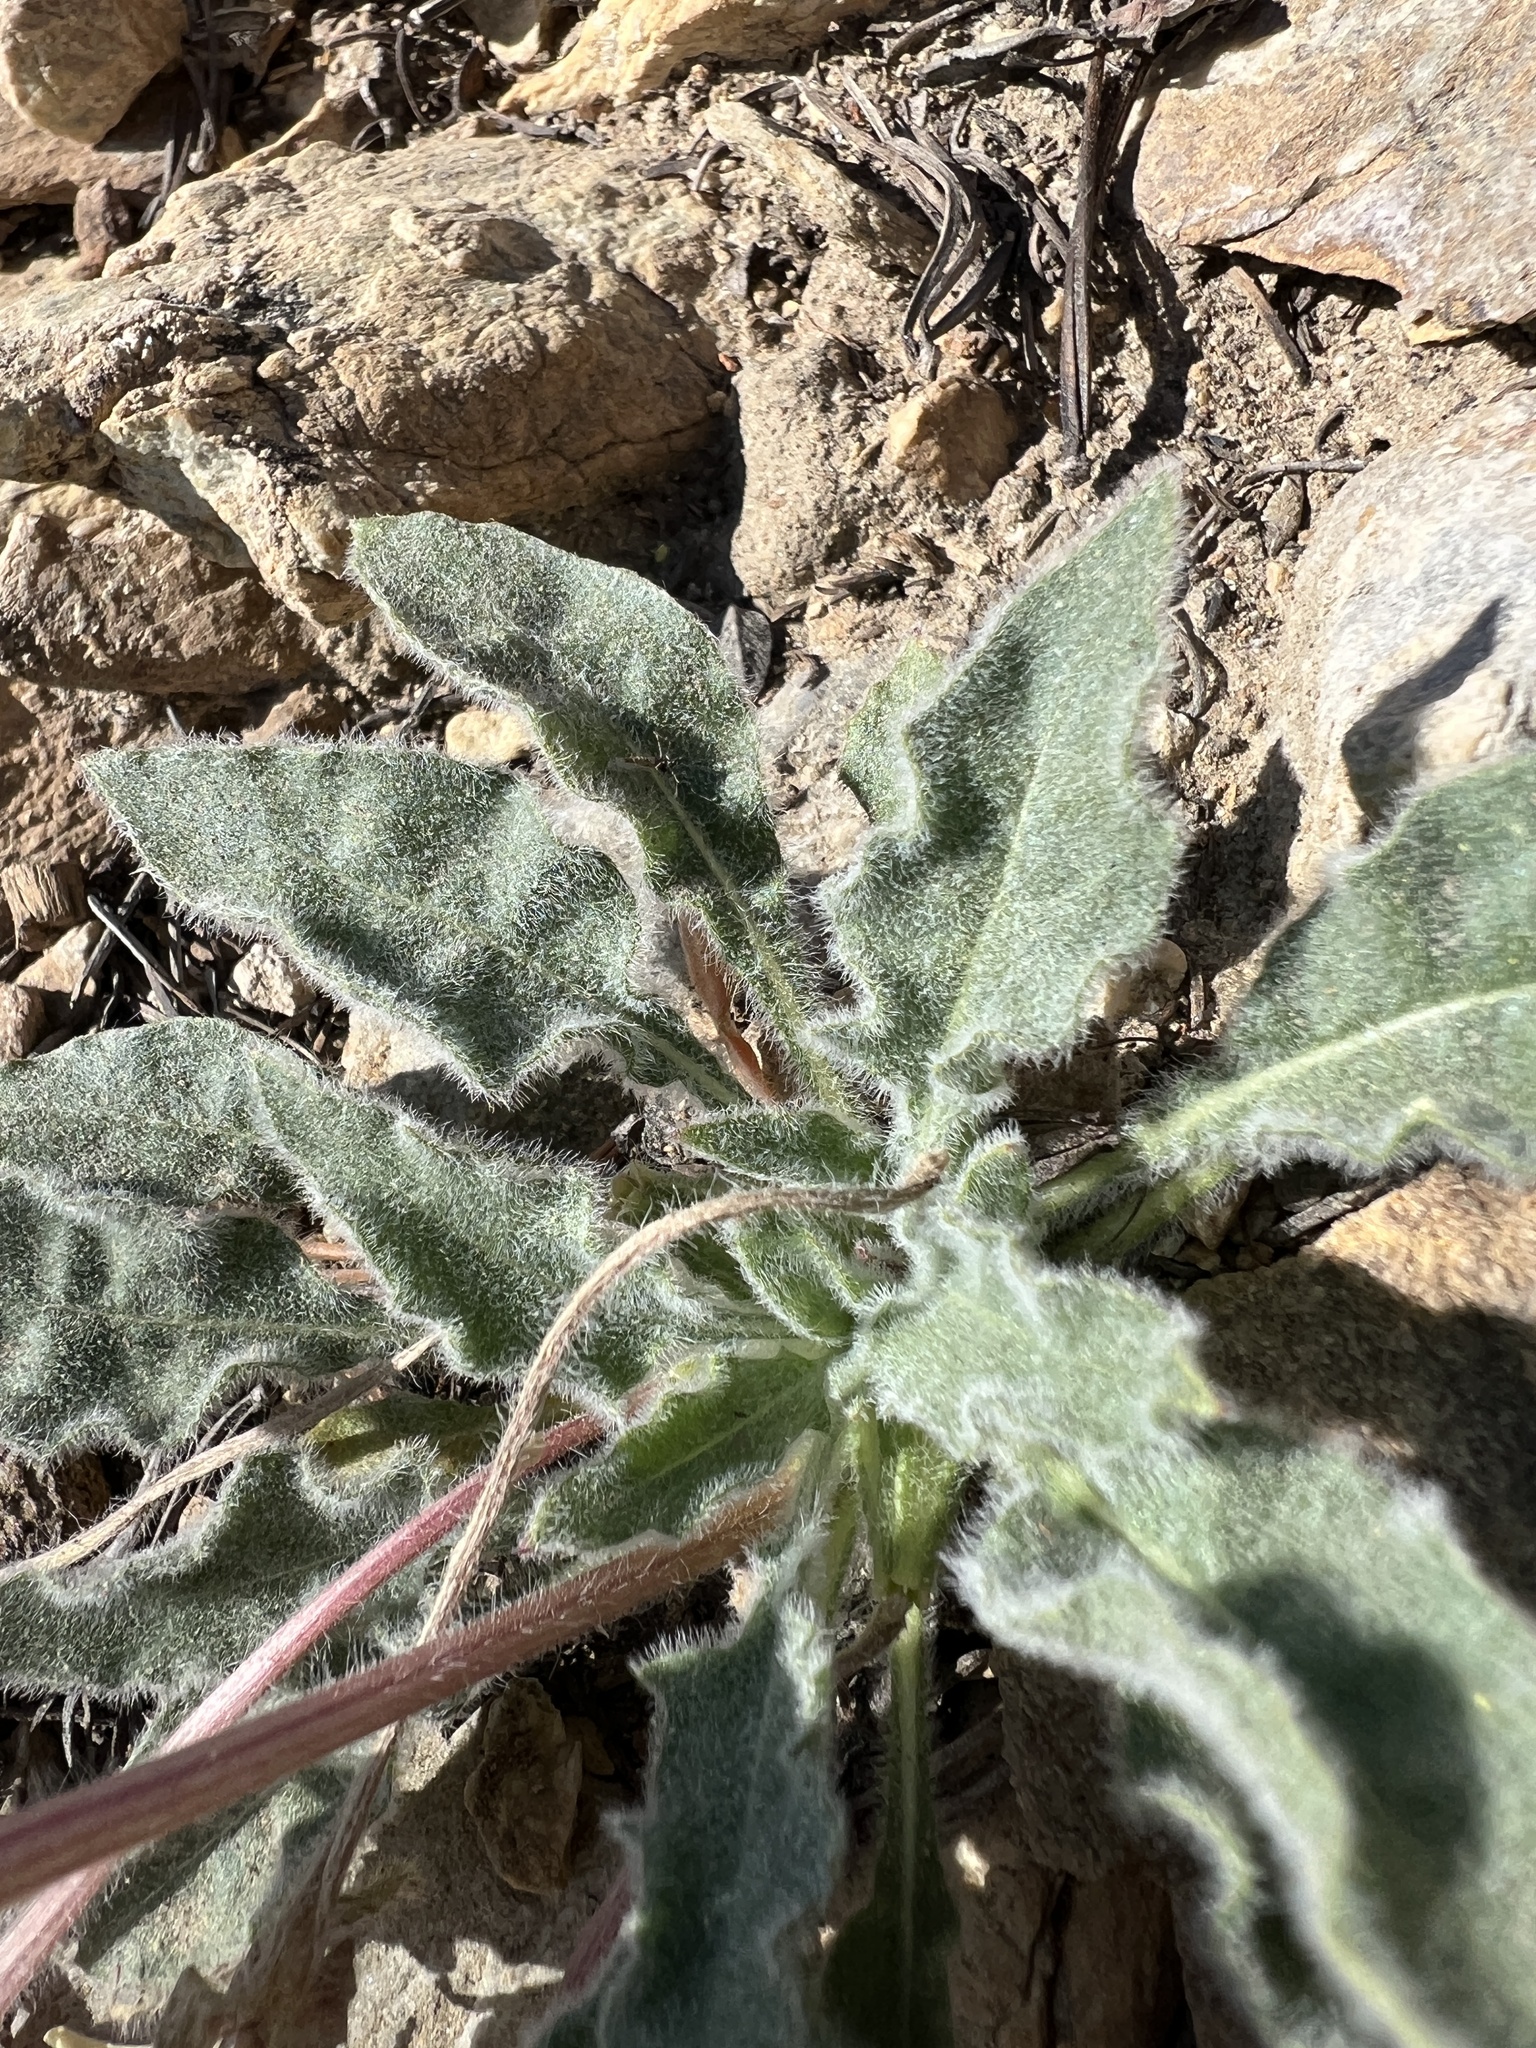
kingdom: Plantae
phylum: Tracheophyta
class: Magnoliopsida
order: Myrtales
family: Onagraceae
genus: Oenothera
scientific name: Oenothera cespitosa
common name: Tufted evening-primrose
